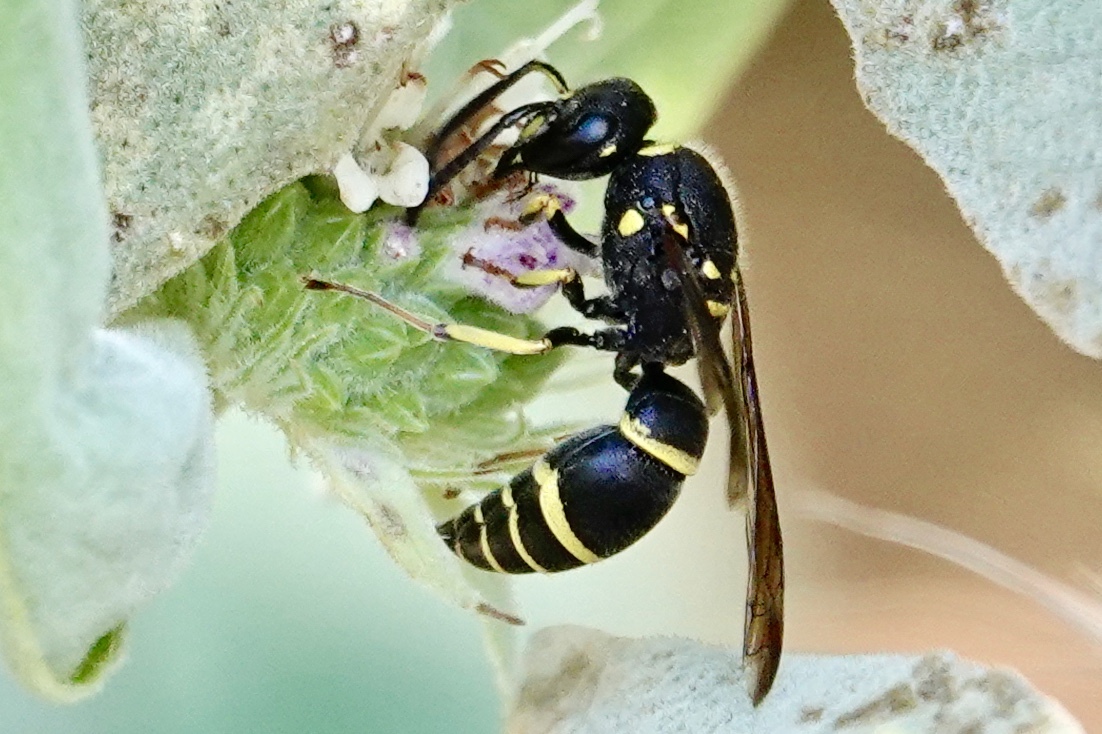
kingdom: Animalia
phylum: Arthropoda
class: Insecta
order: Hymenoptera
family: Vespidae
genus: Ancistrocerus
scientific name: Ancistrocerus adiabatus
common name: Bramble mason wasp
